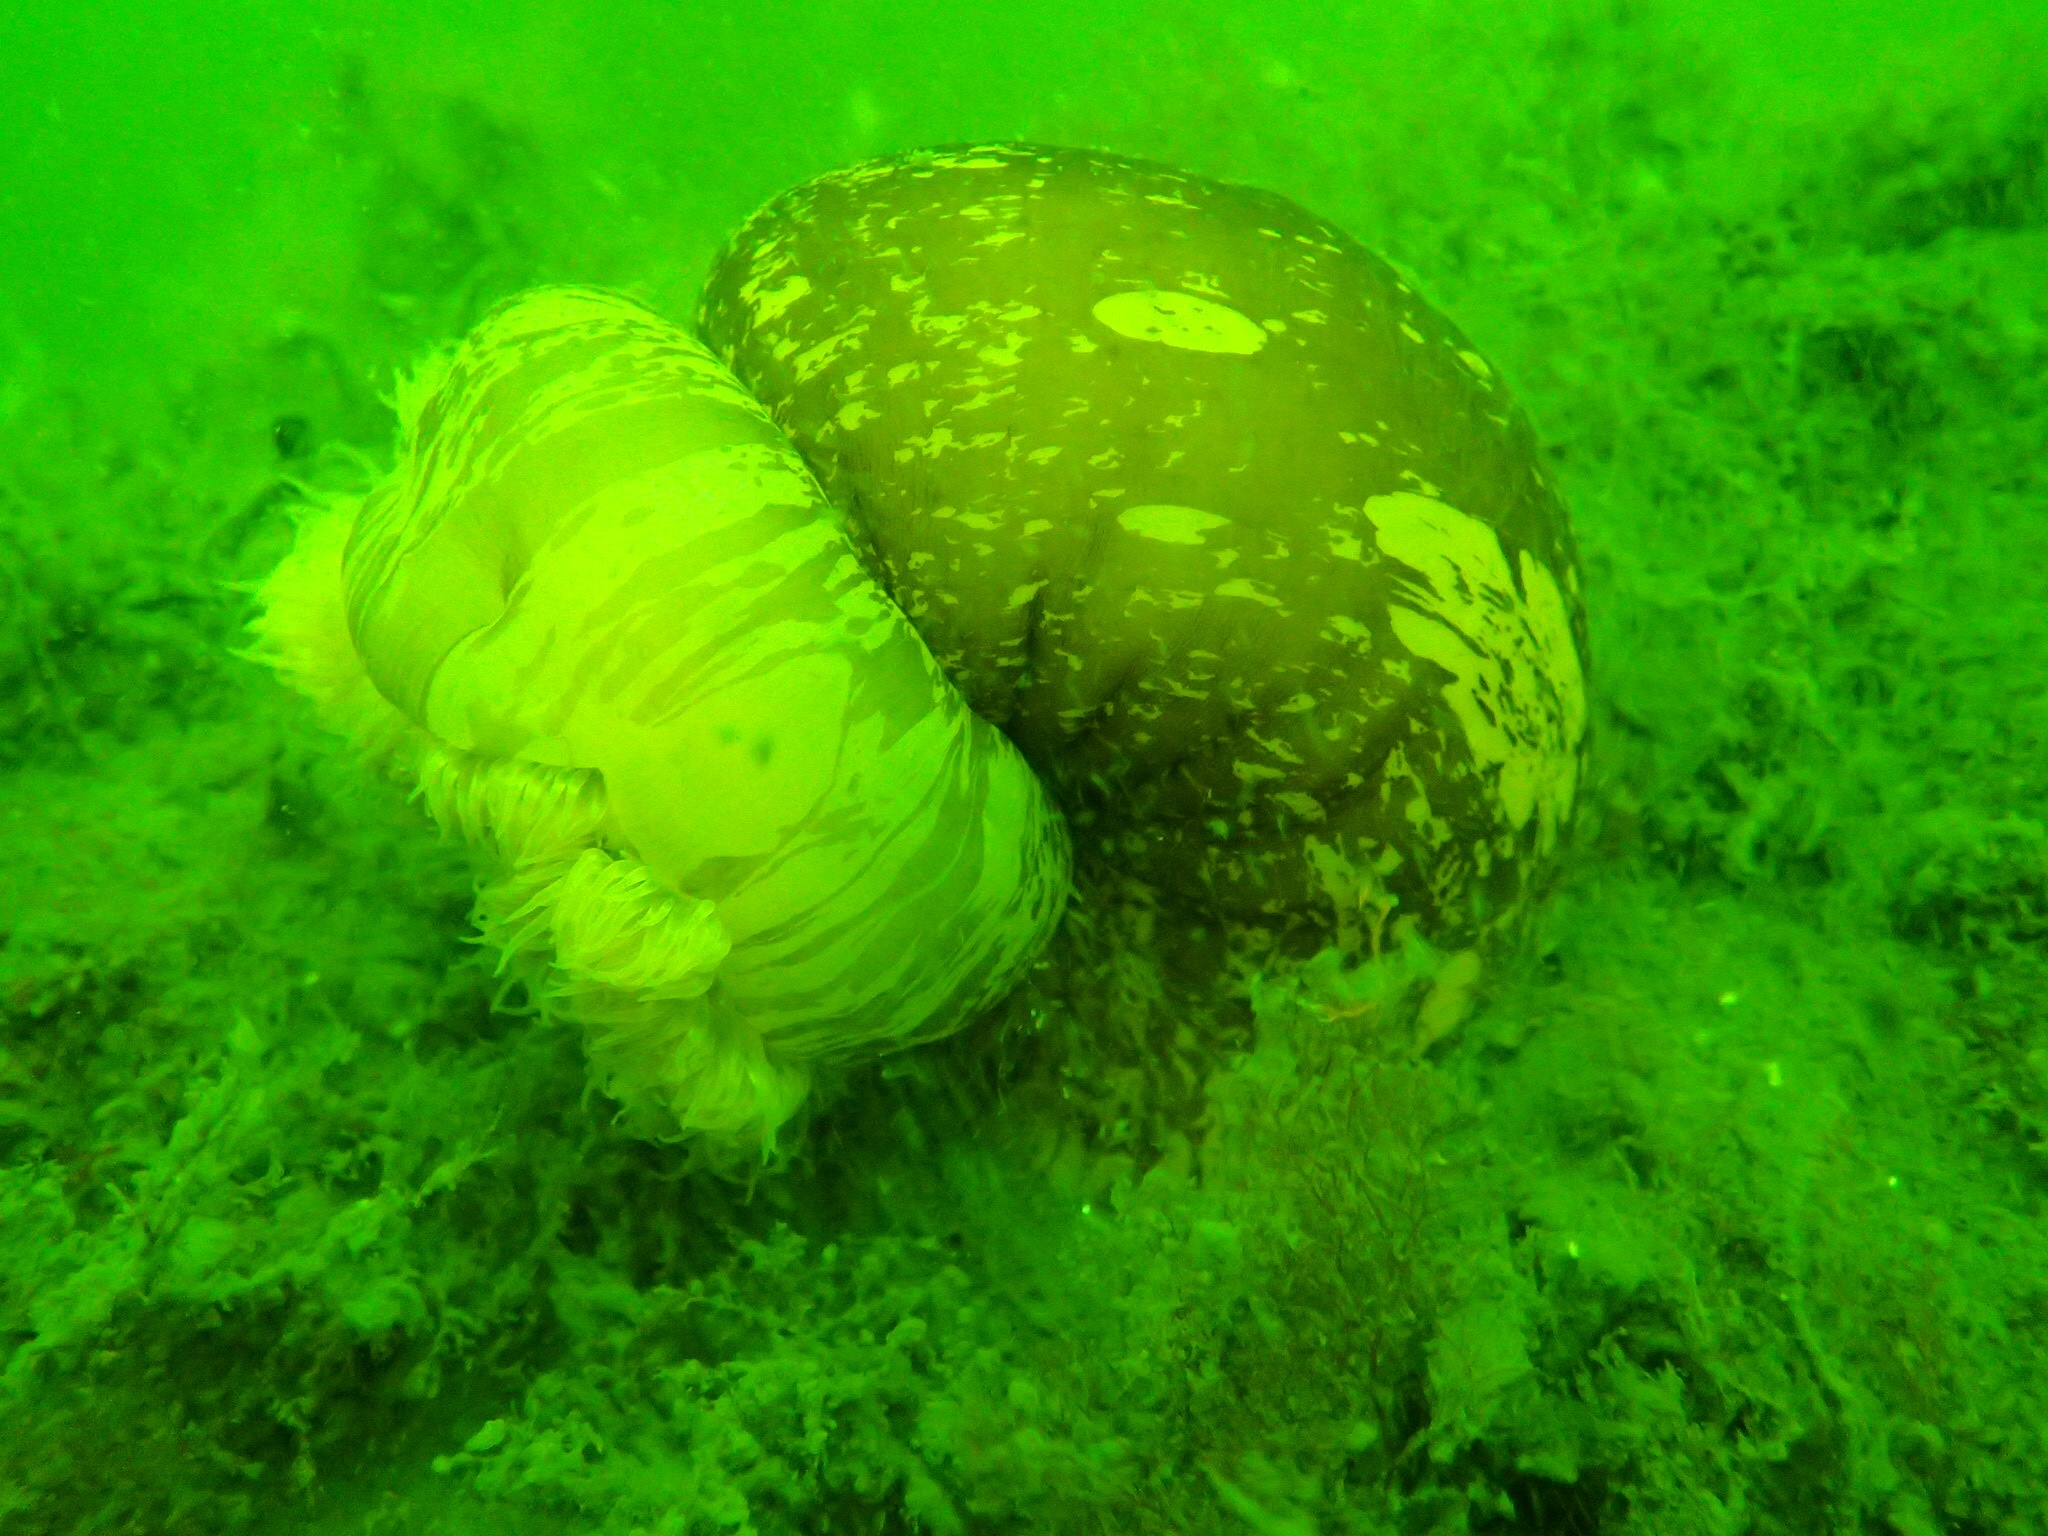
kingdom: Animalia
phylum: Cnidaria
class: Anthozoa
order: Actiniaria
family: Metridiidae
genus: Metridium
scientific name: Metridium senile
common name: Clonal plumose anemone
